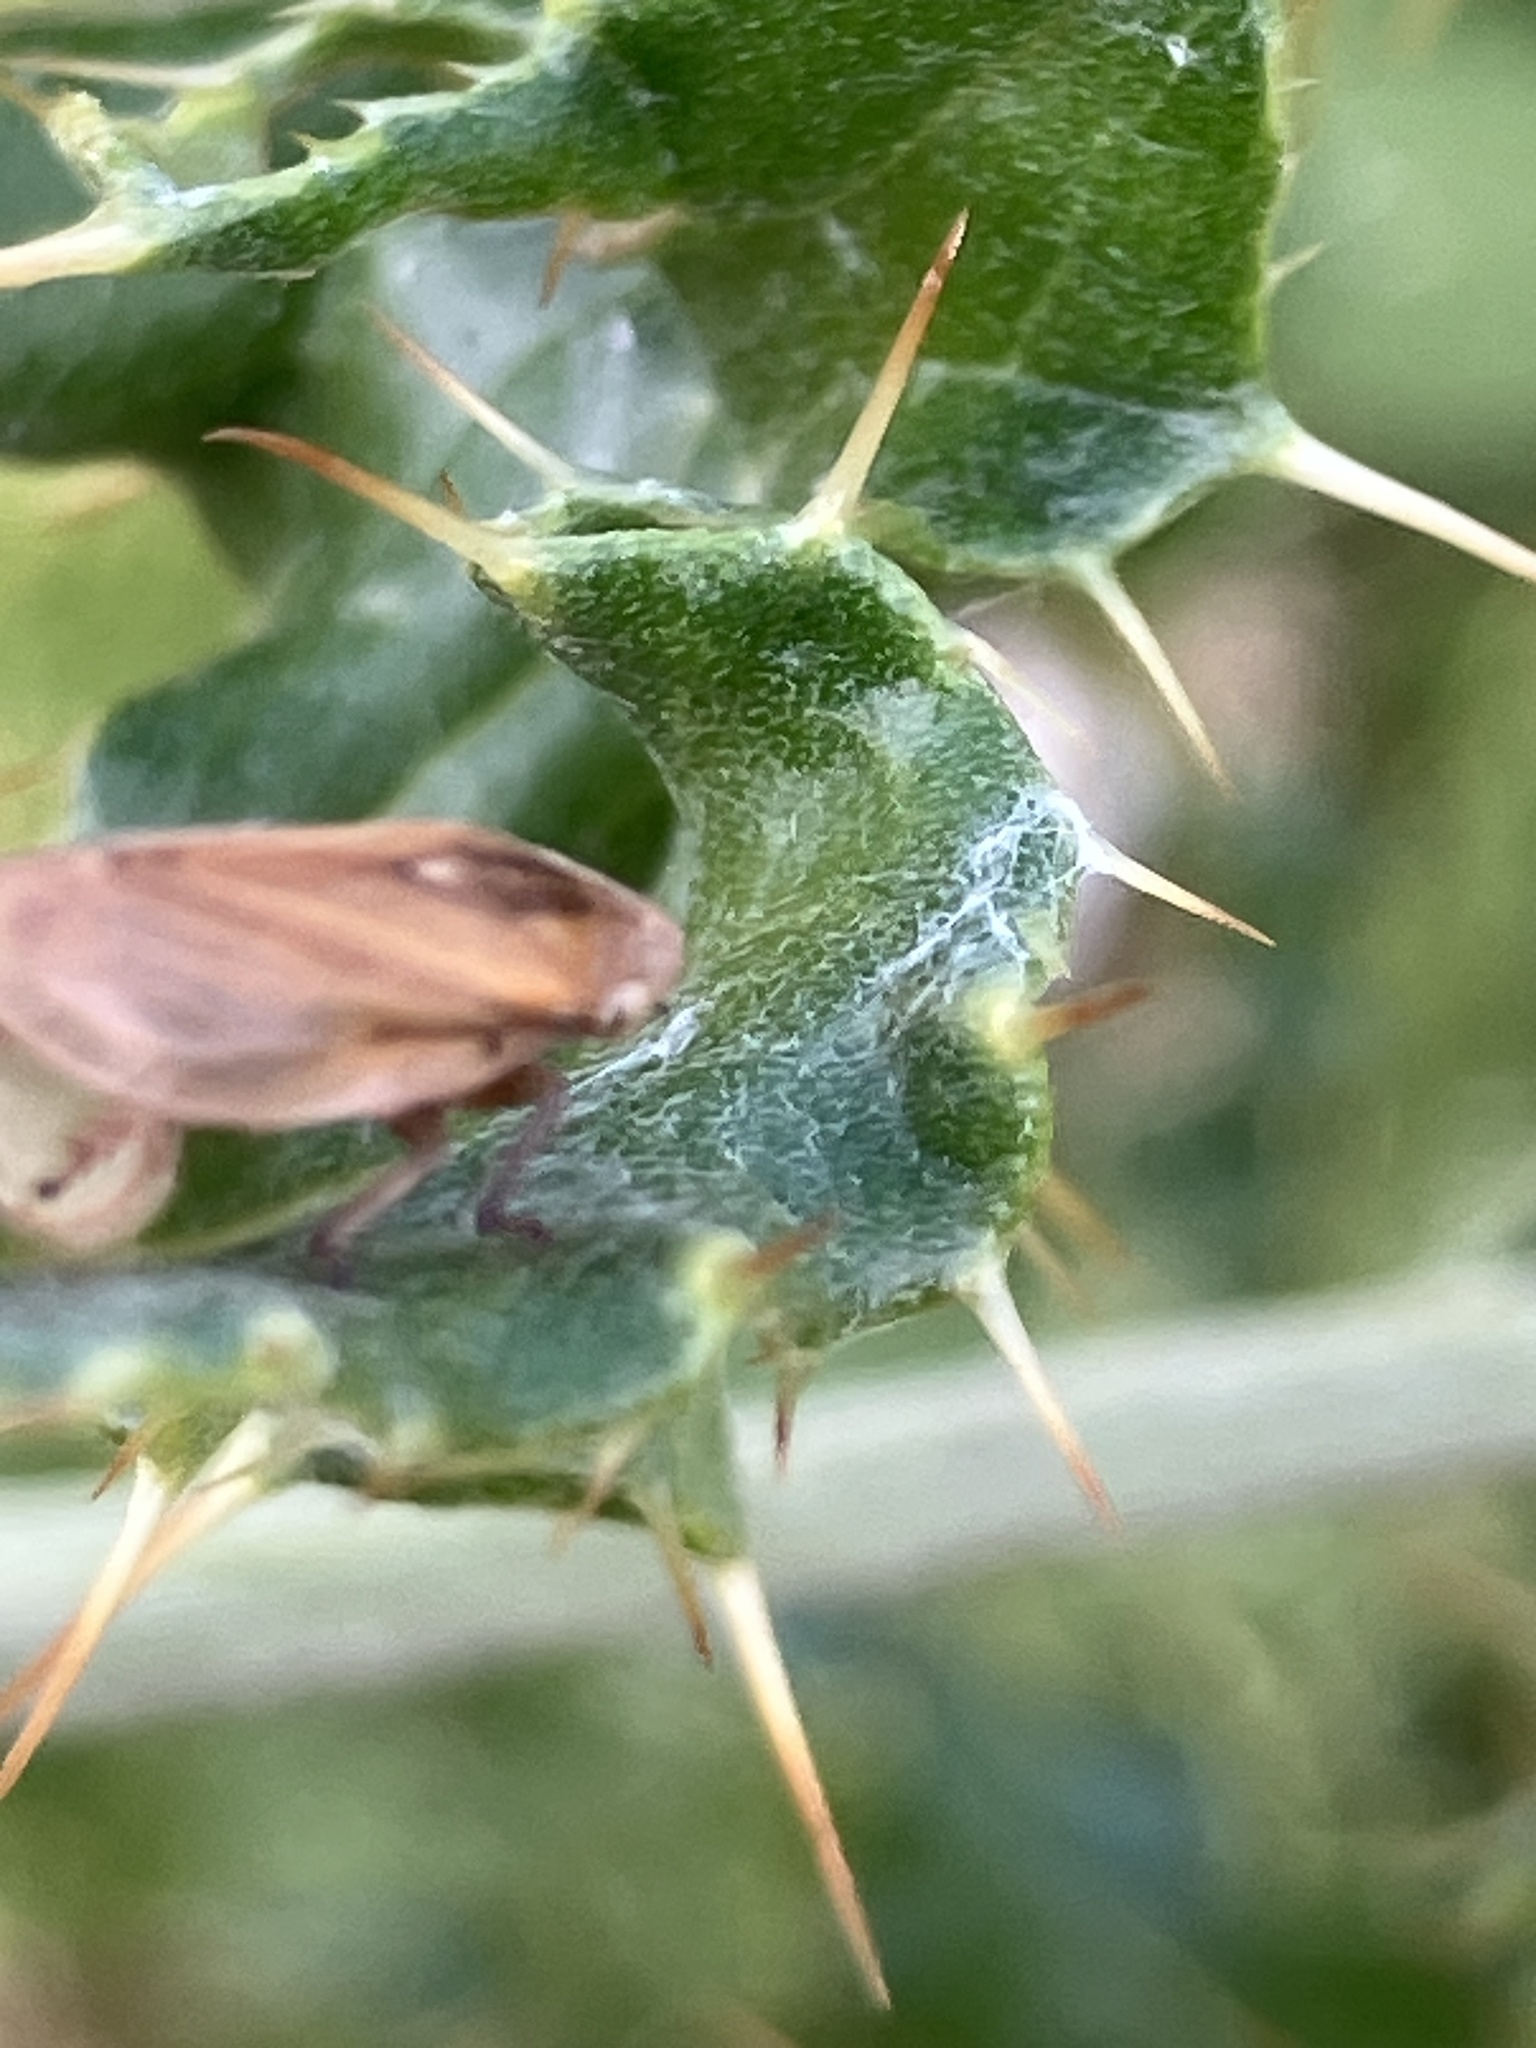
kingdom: Animalia
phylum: Arthropoda
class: Insecta
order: Hemiptera
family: Aphrophoridae
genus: Philaenus
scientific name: Philaenus spumarius
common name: Meadow spittlebug
